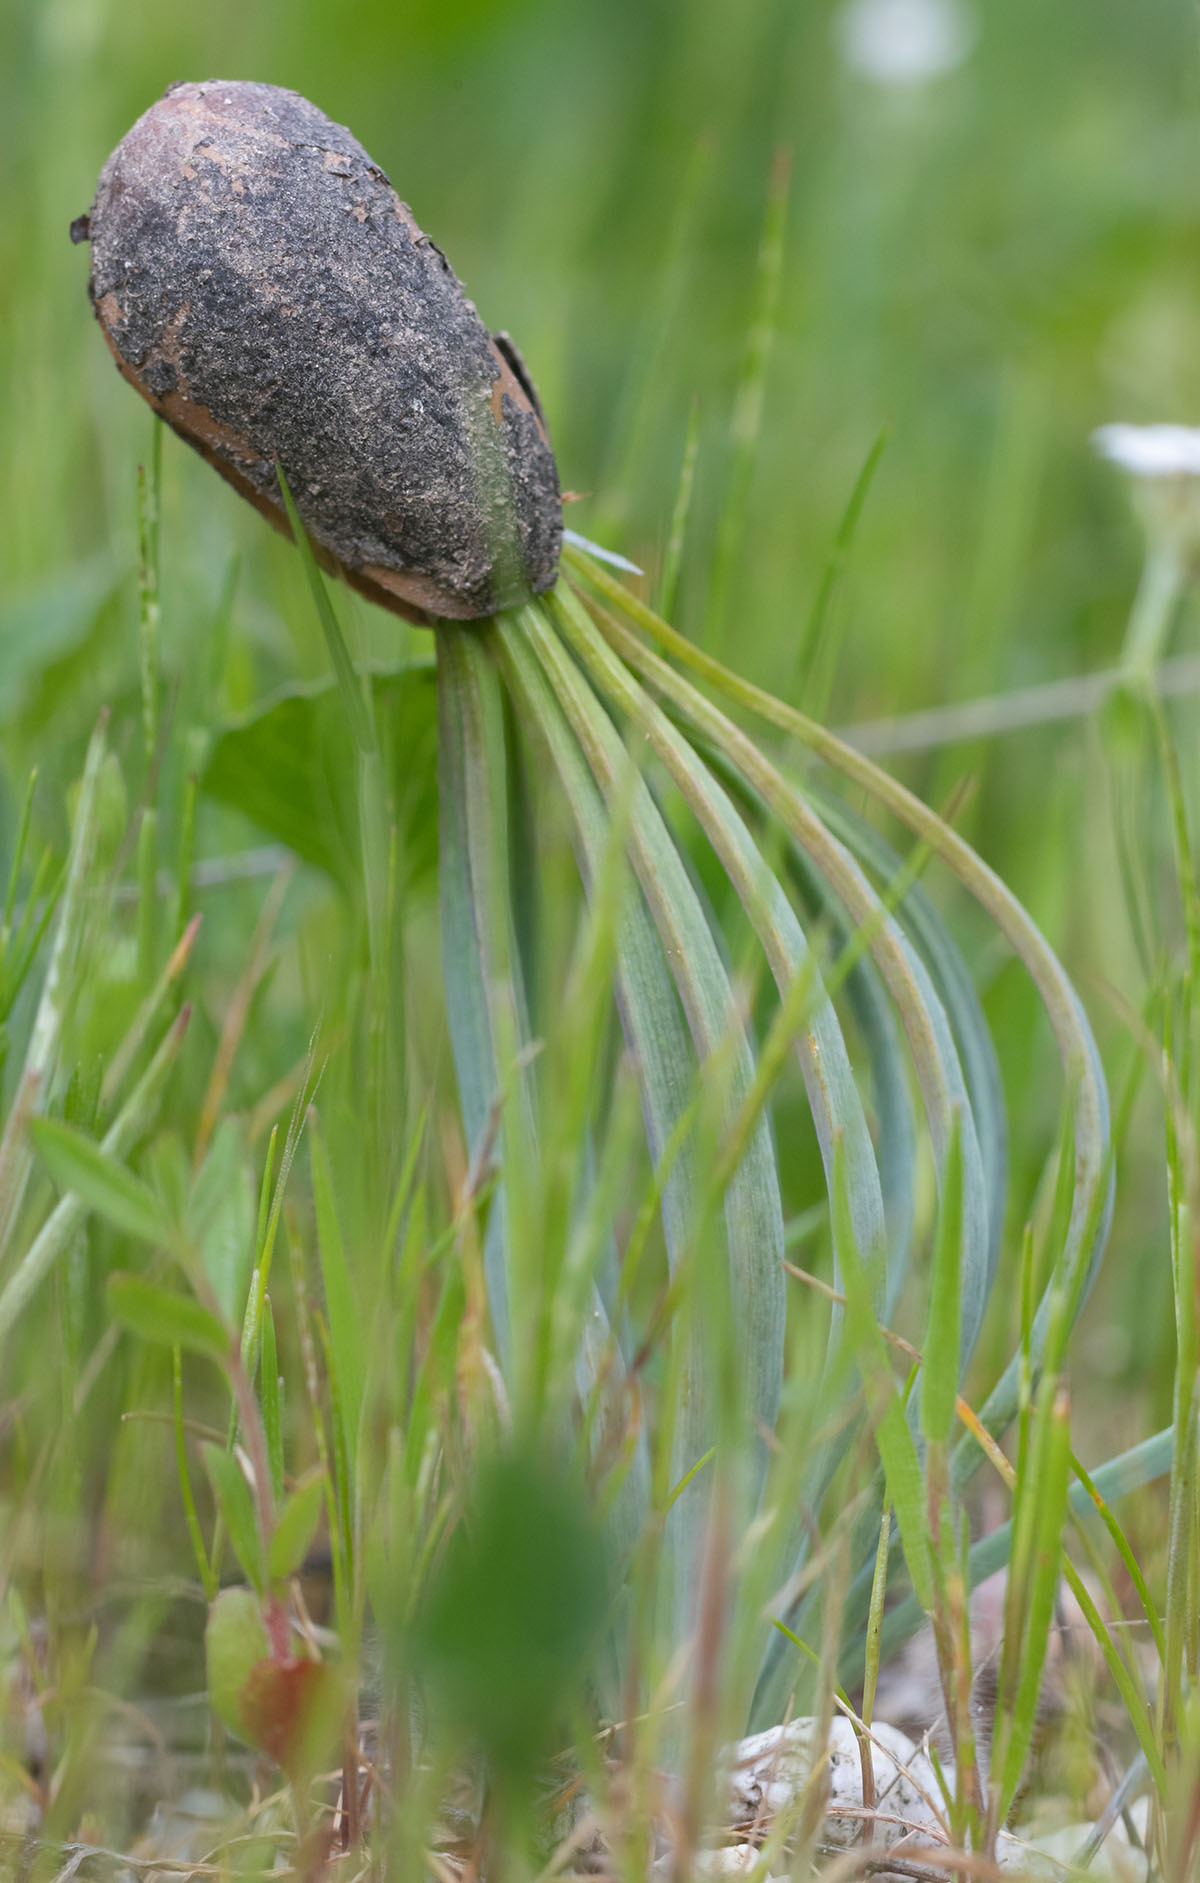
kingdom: Plantae
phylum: Tracheophyta
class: Pinopsida
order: Pinales
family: Pinaceae
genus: Pinus
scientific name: Pinus sabiniana
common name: Bull pine
